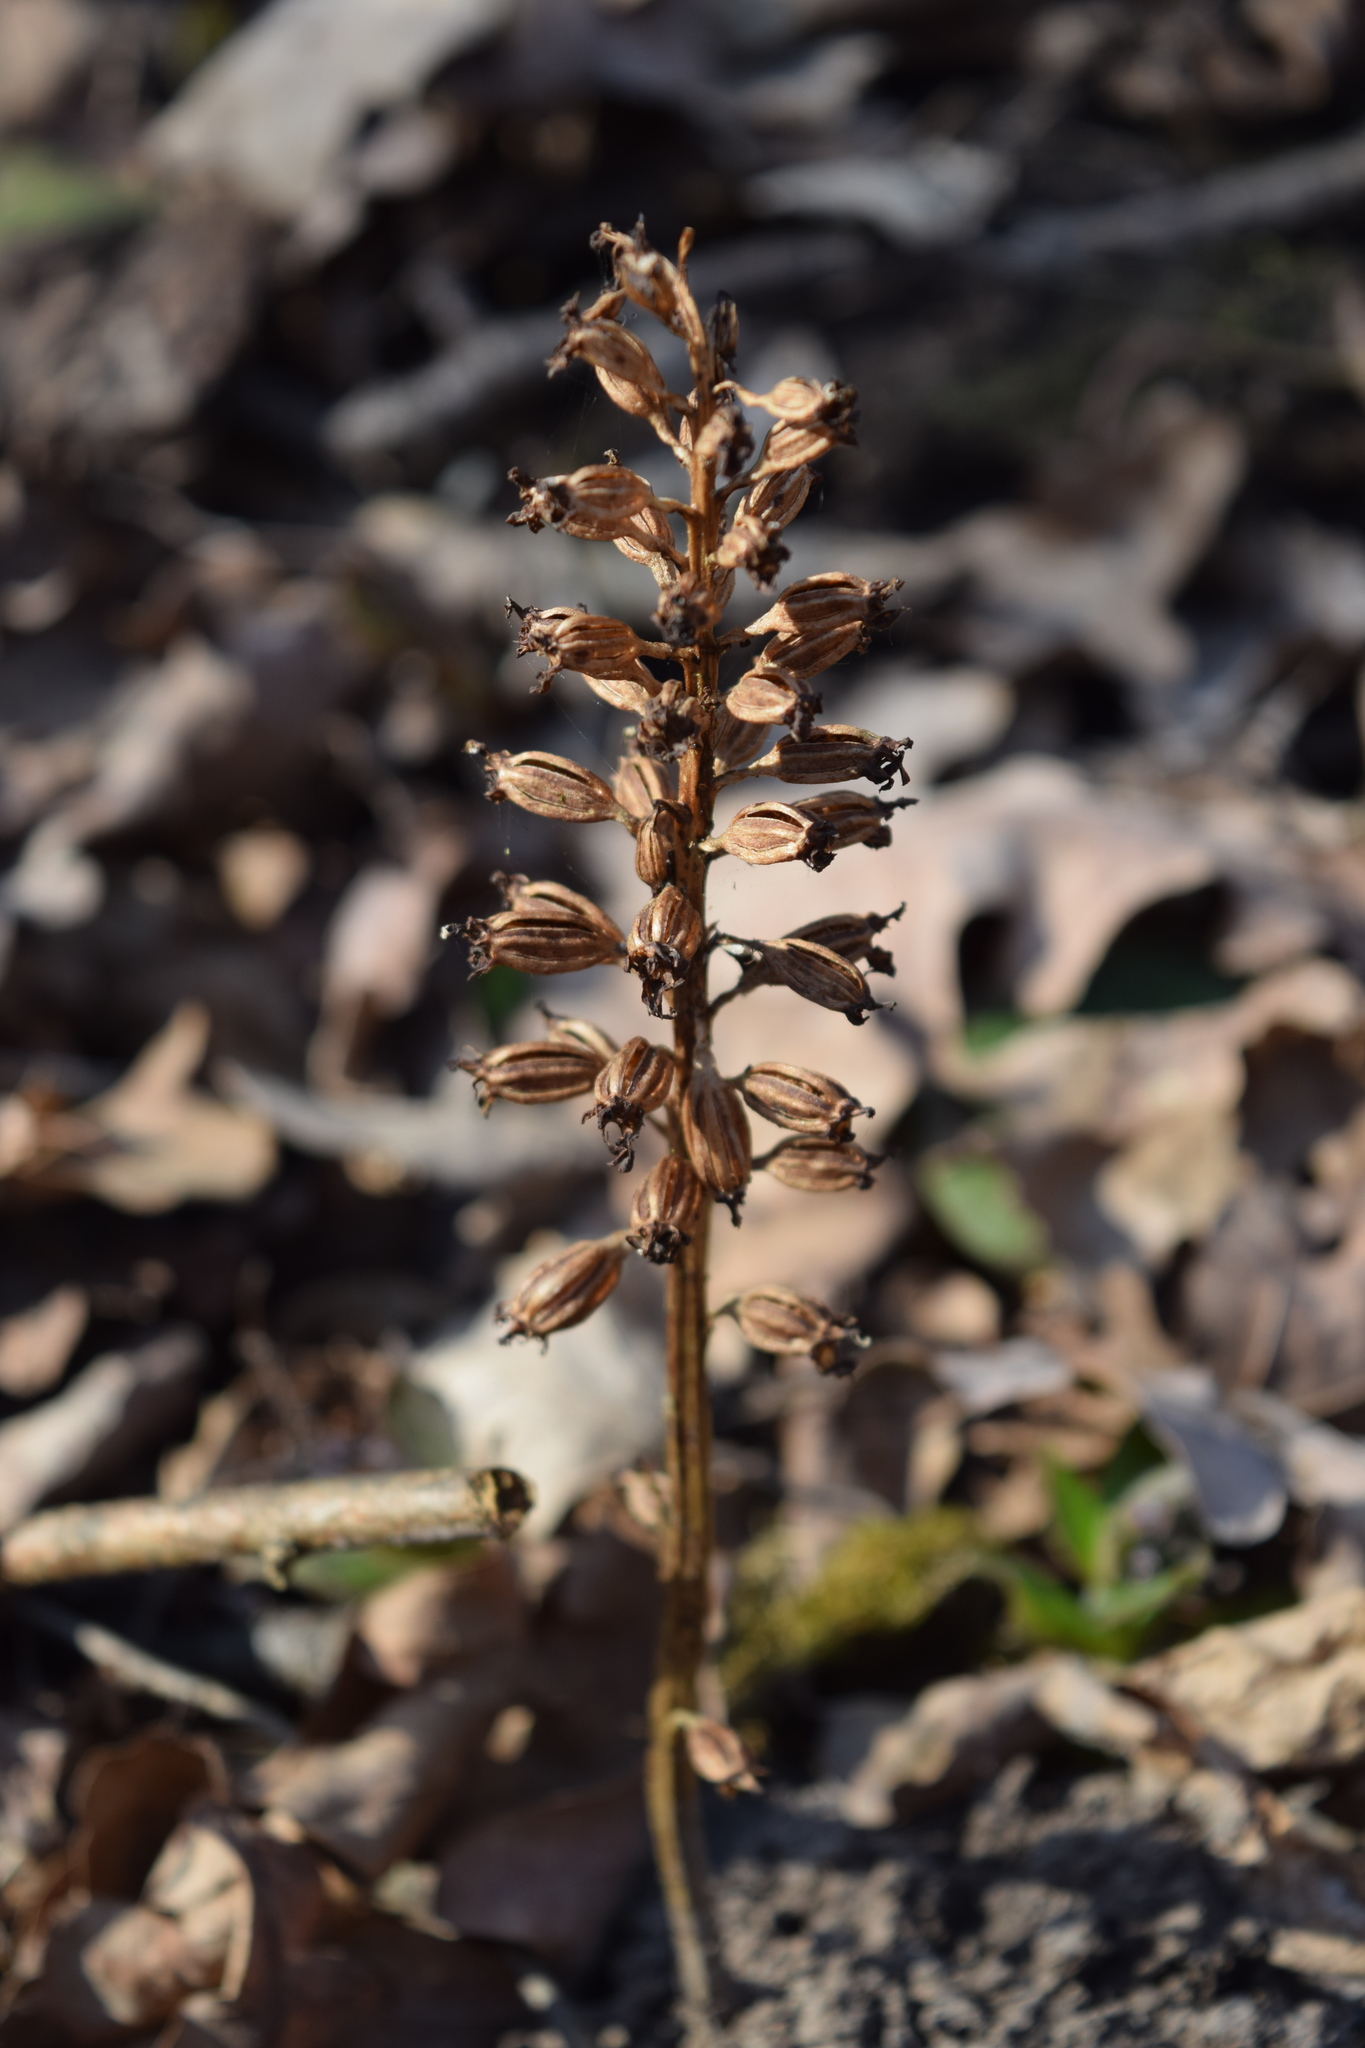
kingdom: Plantae
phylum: Tracheophyta
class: Liliopsida
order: Asparagales
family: Orchidaceae
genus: Neottia
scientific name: Neottia nidus-avis
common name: Bird's-nest orchid
